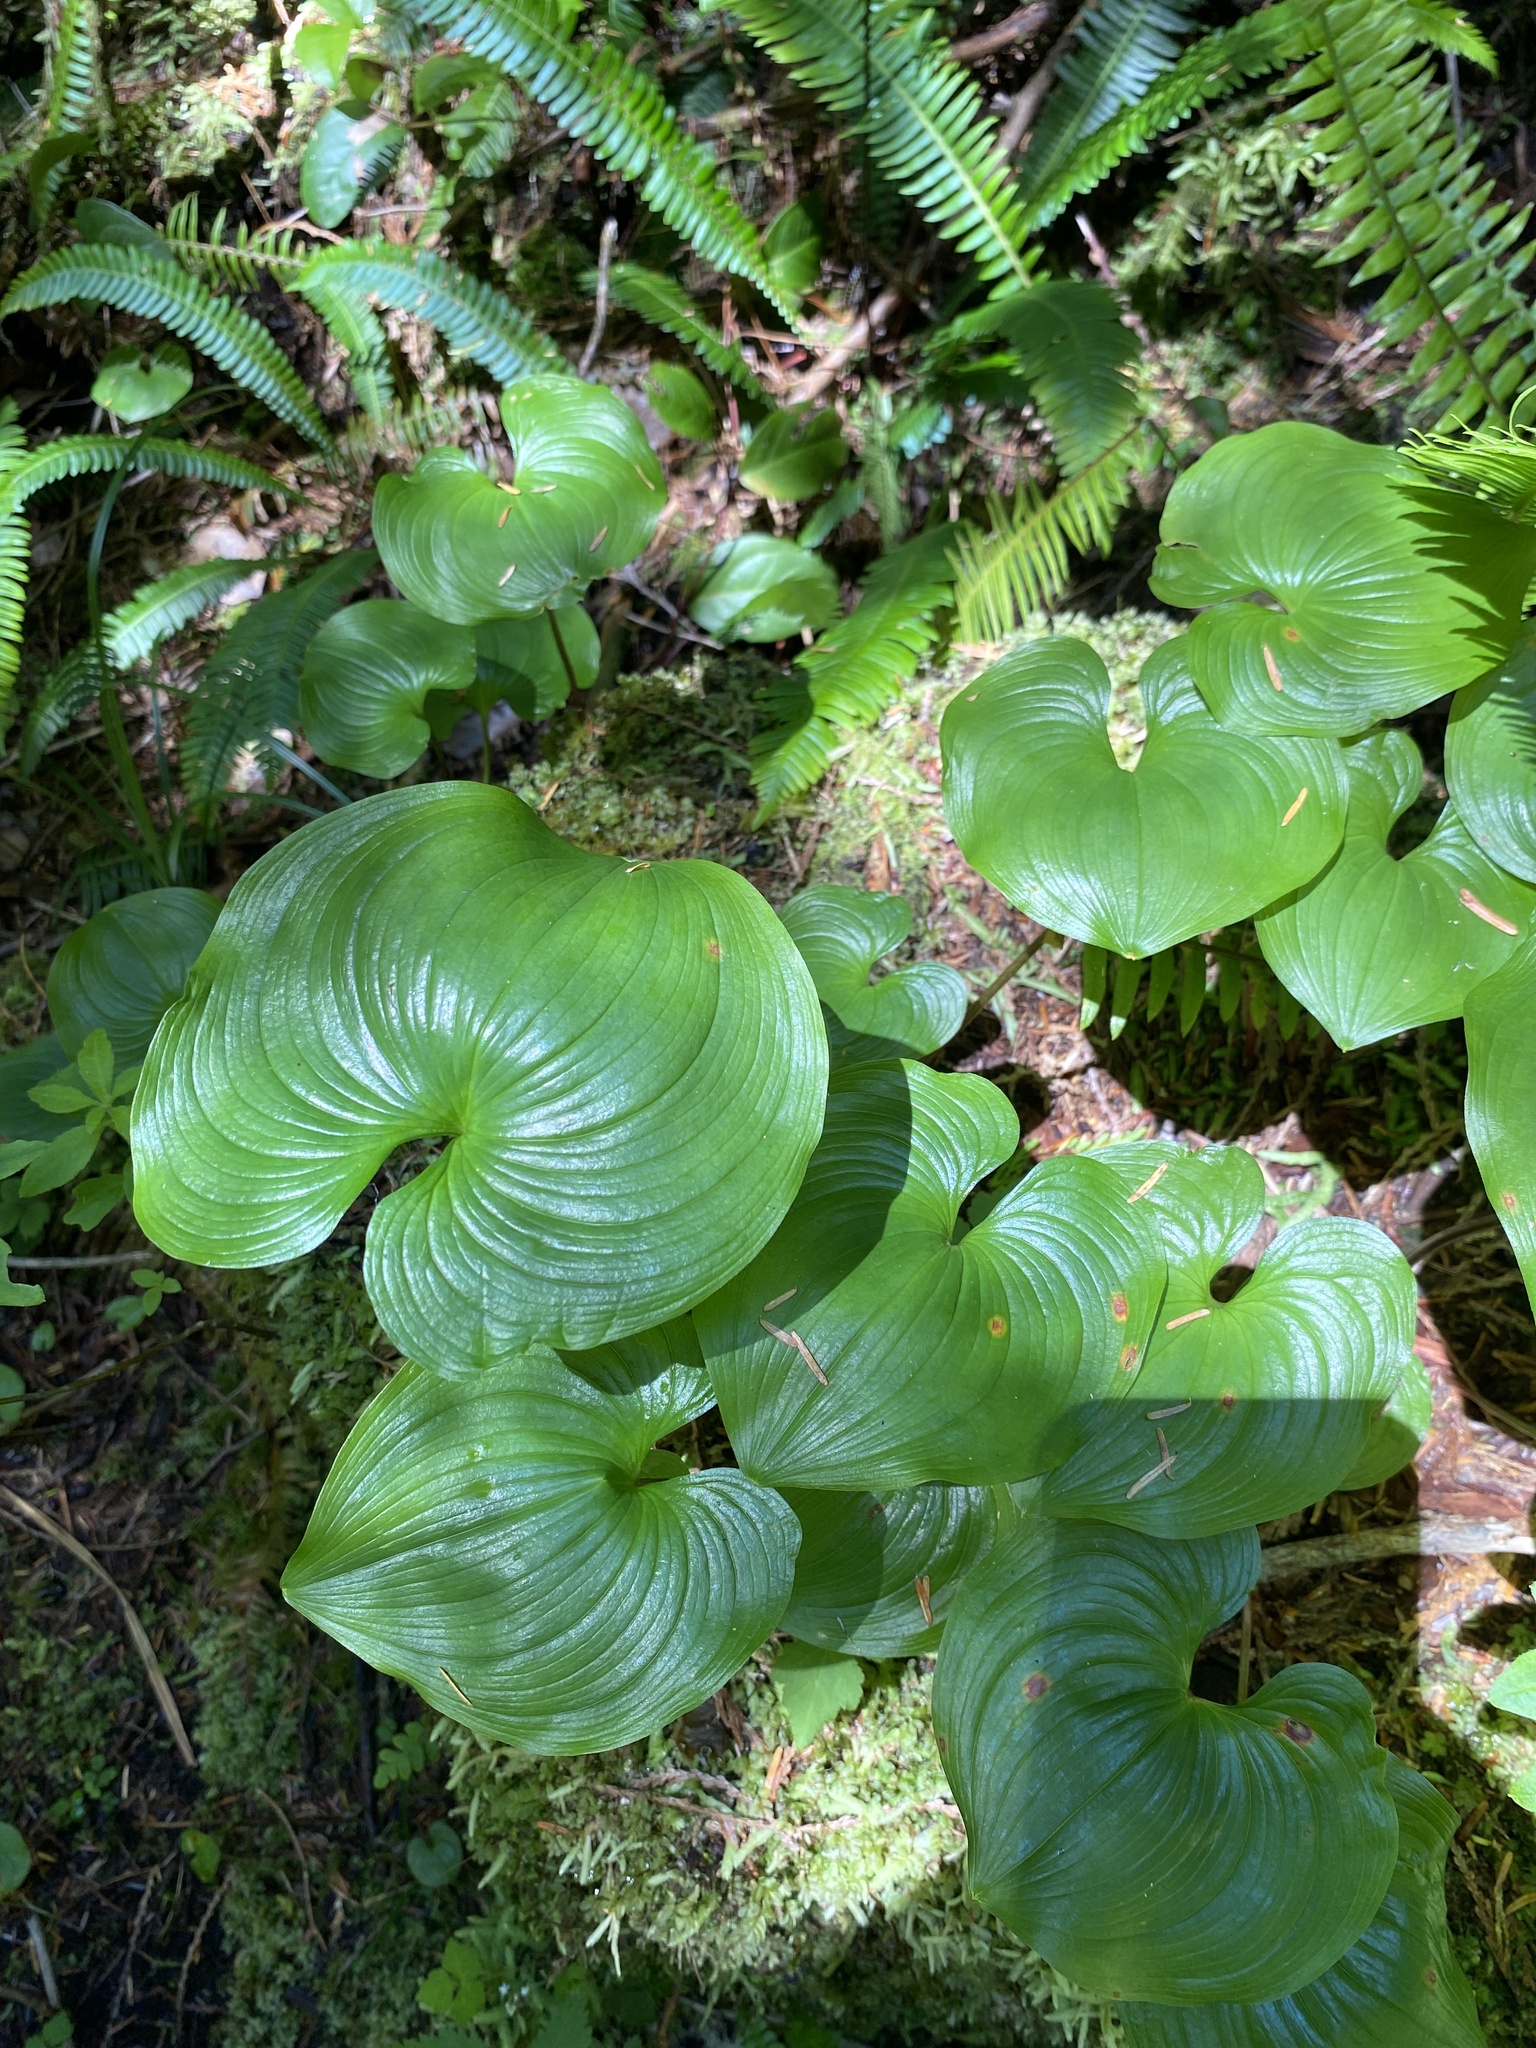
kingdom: Plantae
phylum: Tracheophyta
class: Liliopsida
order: Asparagales
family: Asparagaceae
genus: Maianthemum
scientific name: Maianthemum dilatatum
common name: False lily-of-the-valley
